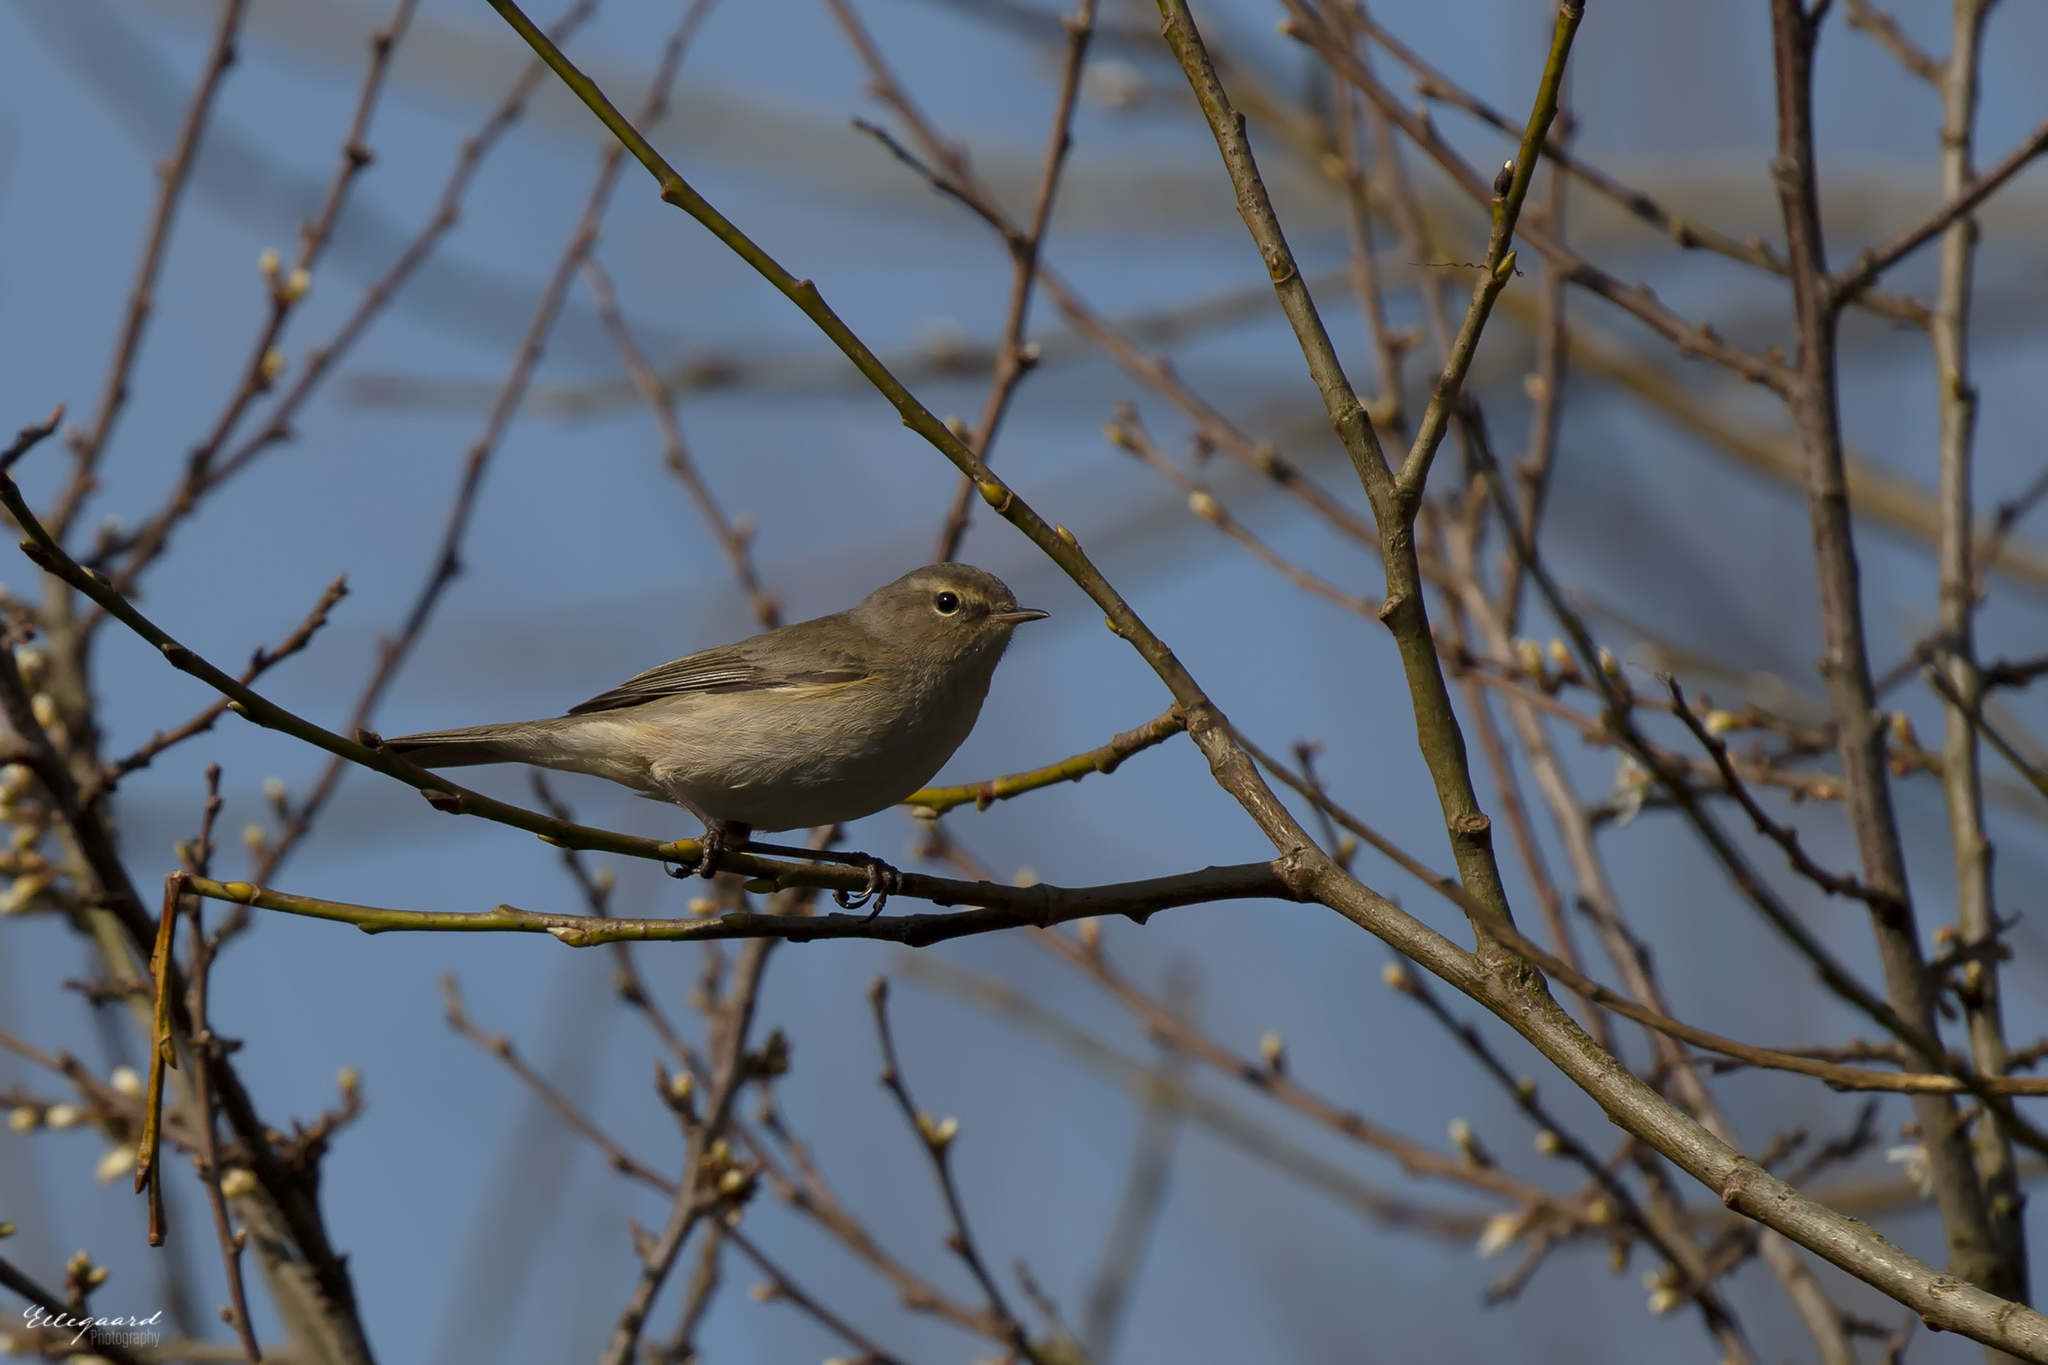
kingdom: Animalia
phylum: Chordata
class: Aves
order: Passeriformes
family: Phylloscopidae
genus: Phylloscopus
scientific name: Phylloscopus collybita
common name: Common chiffchaff
